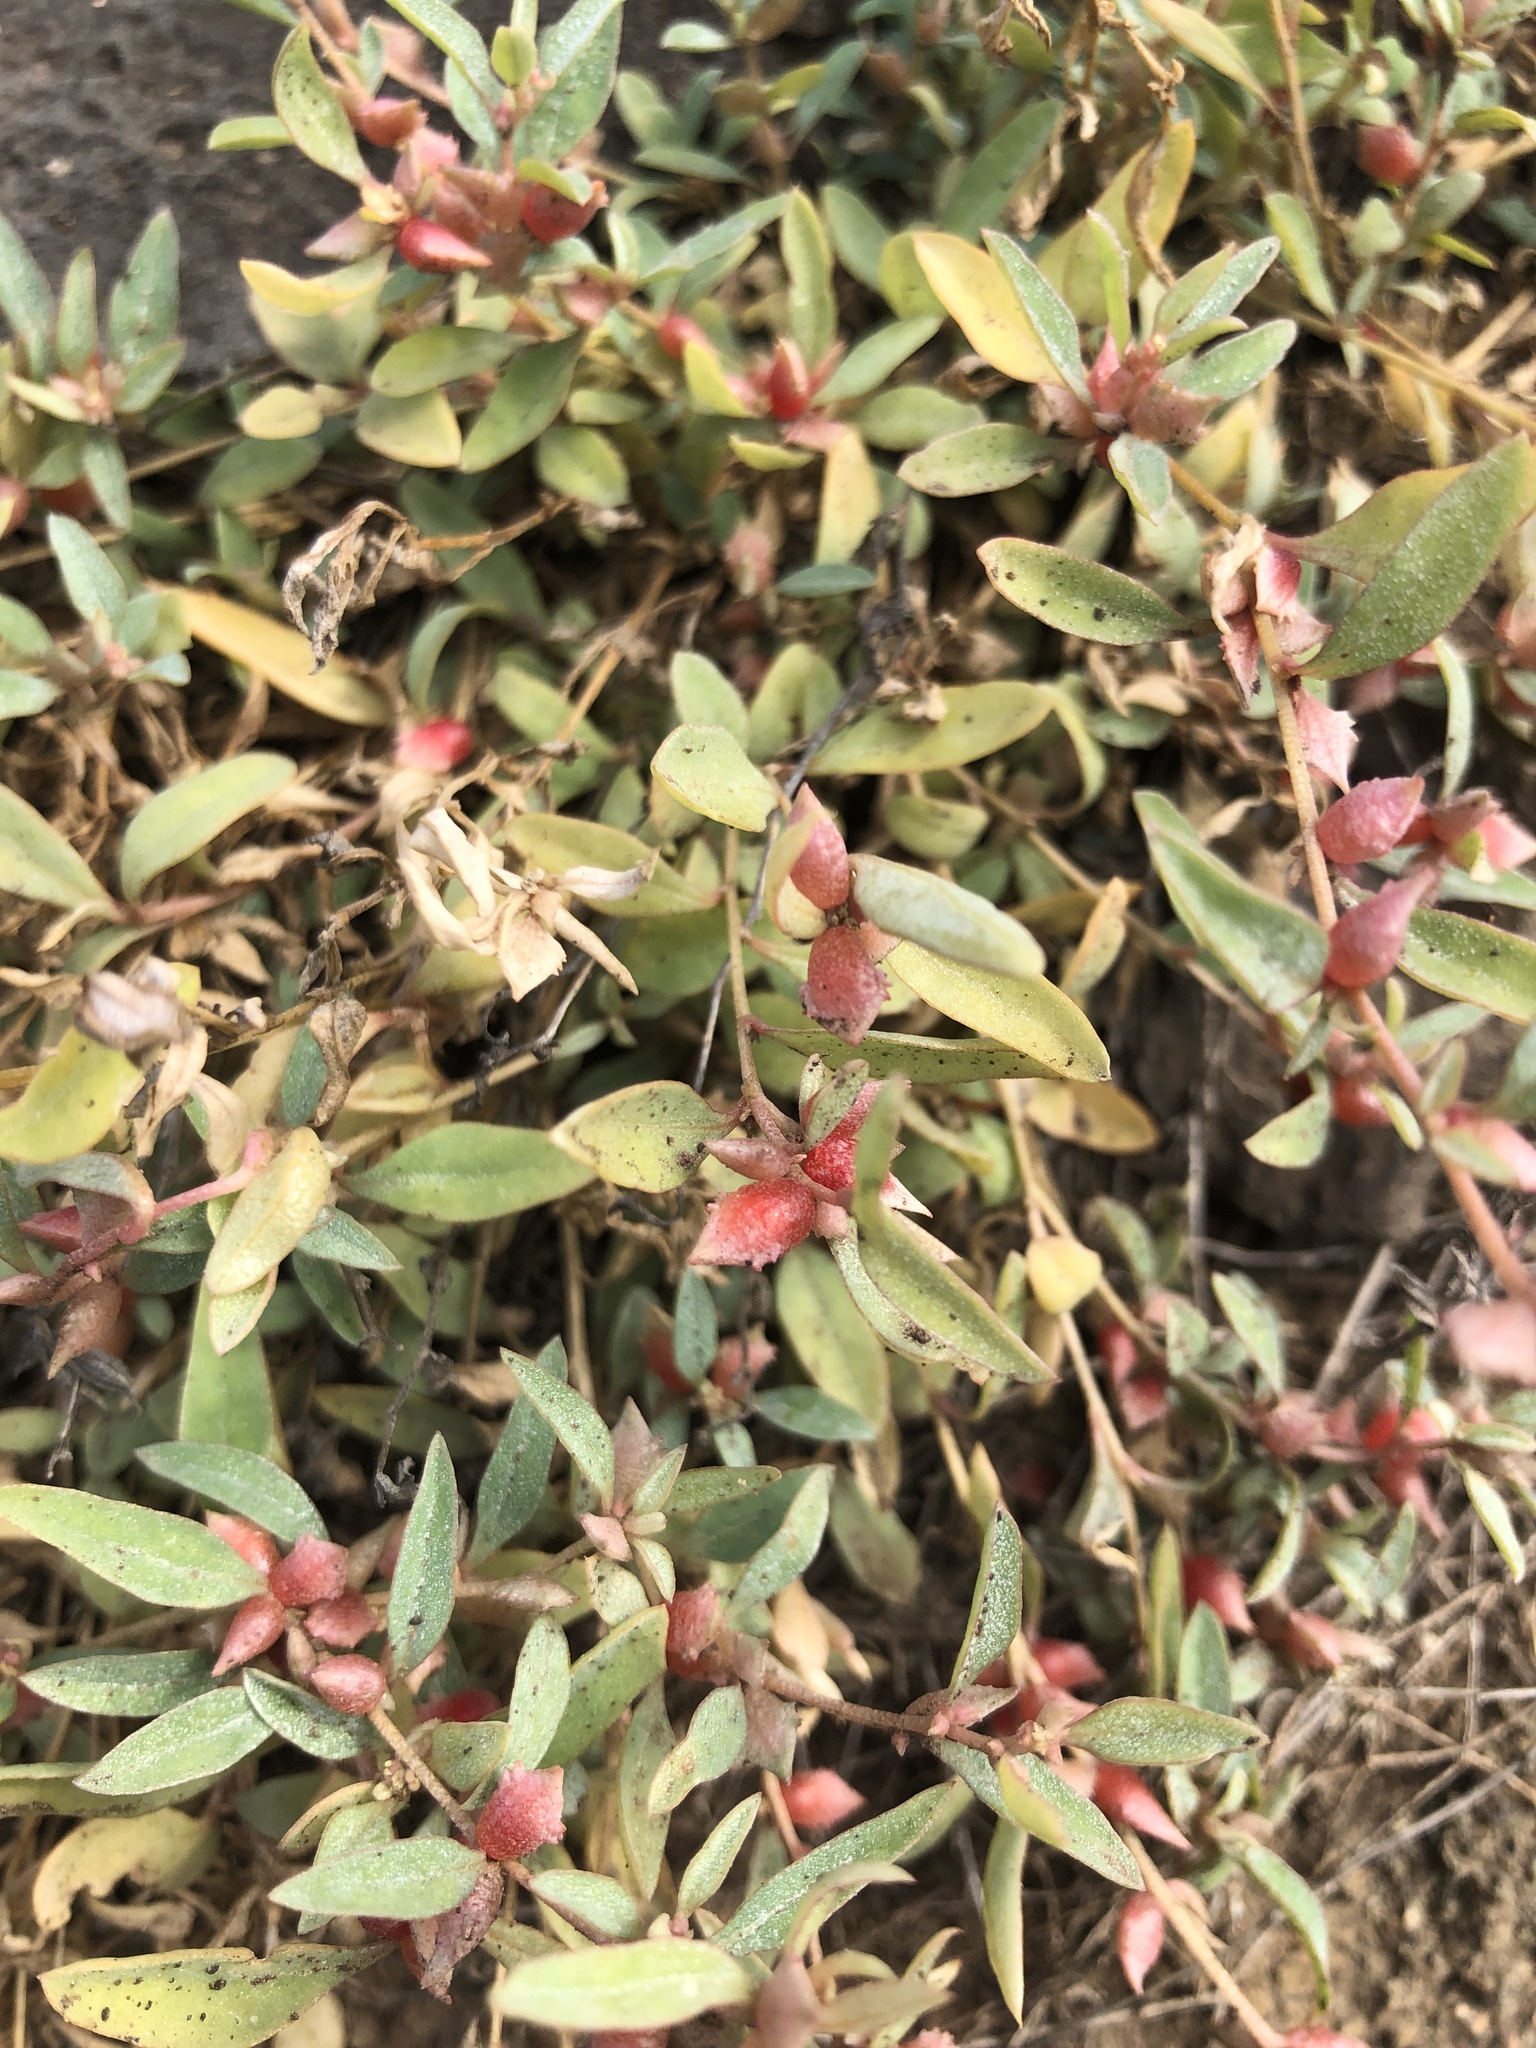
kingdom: Plantae
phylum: Tracheophyta
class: Magnoliopsida
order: Caryophyllales
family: Amaranthaceae
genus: Atriplex
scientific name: Atriplex semibaccata
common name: Australian saltbush
